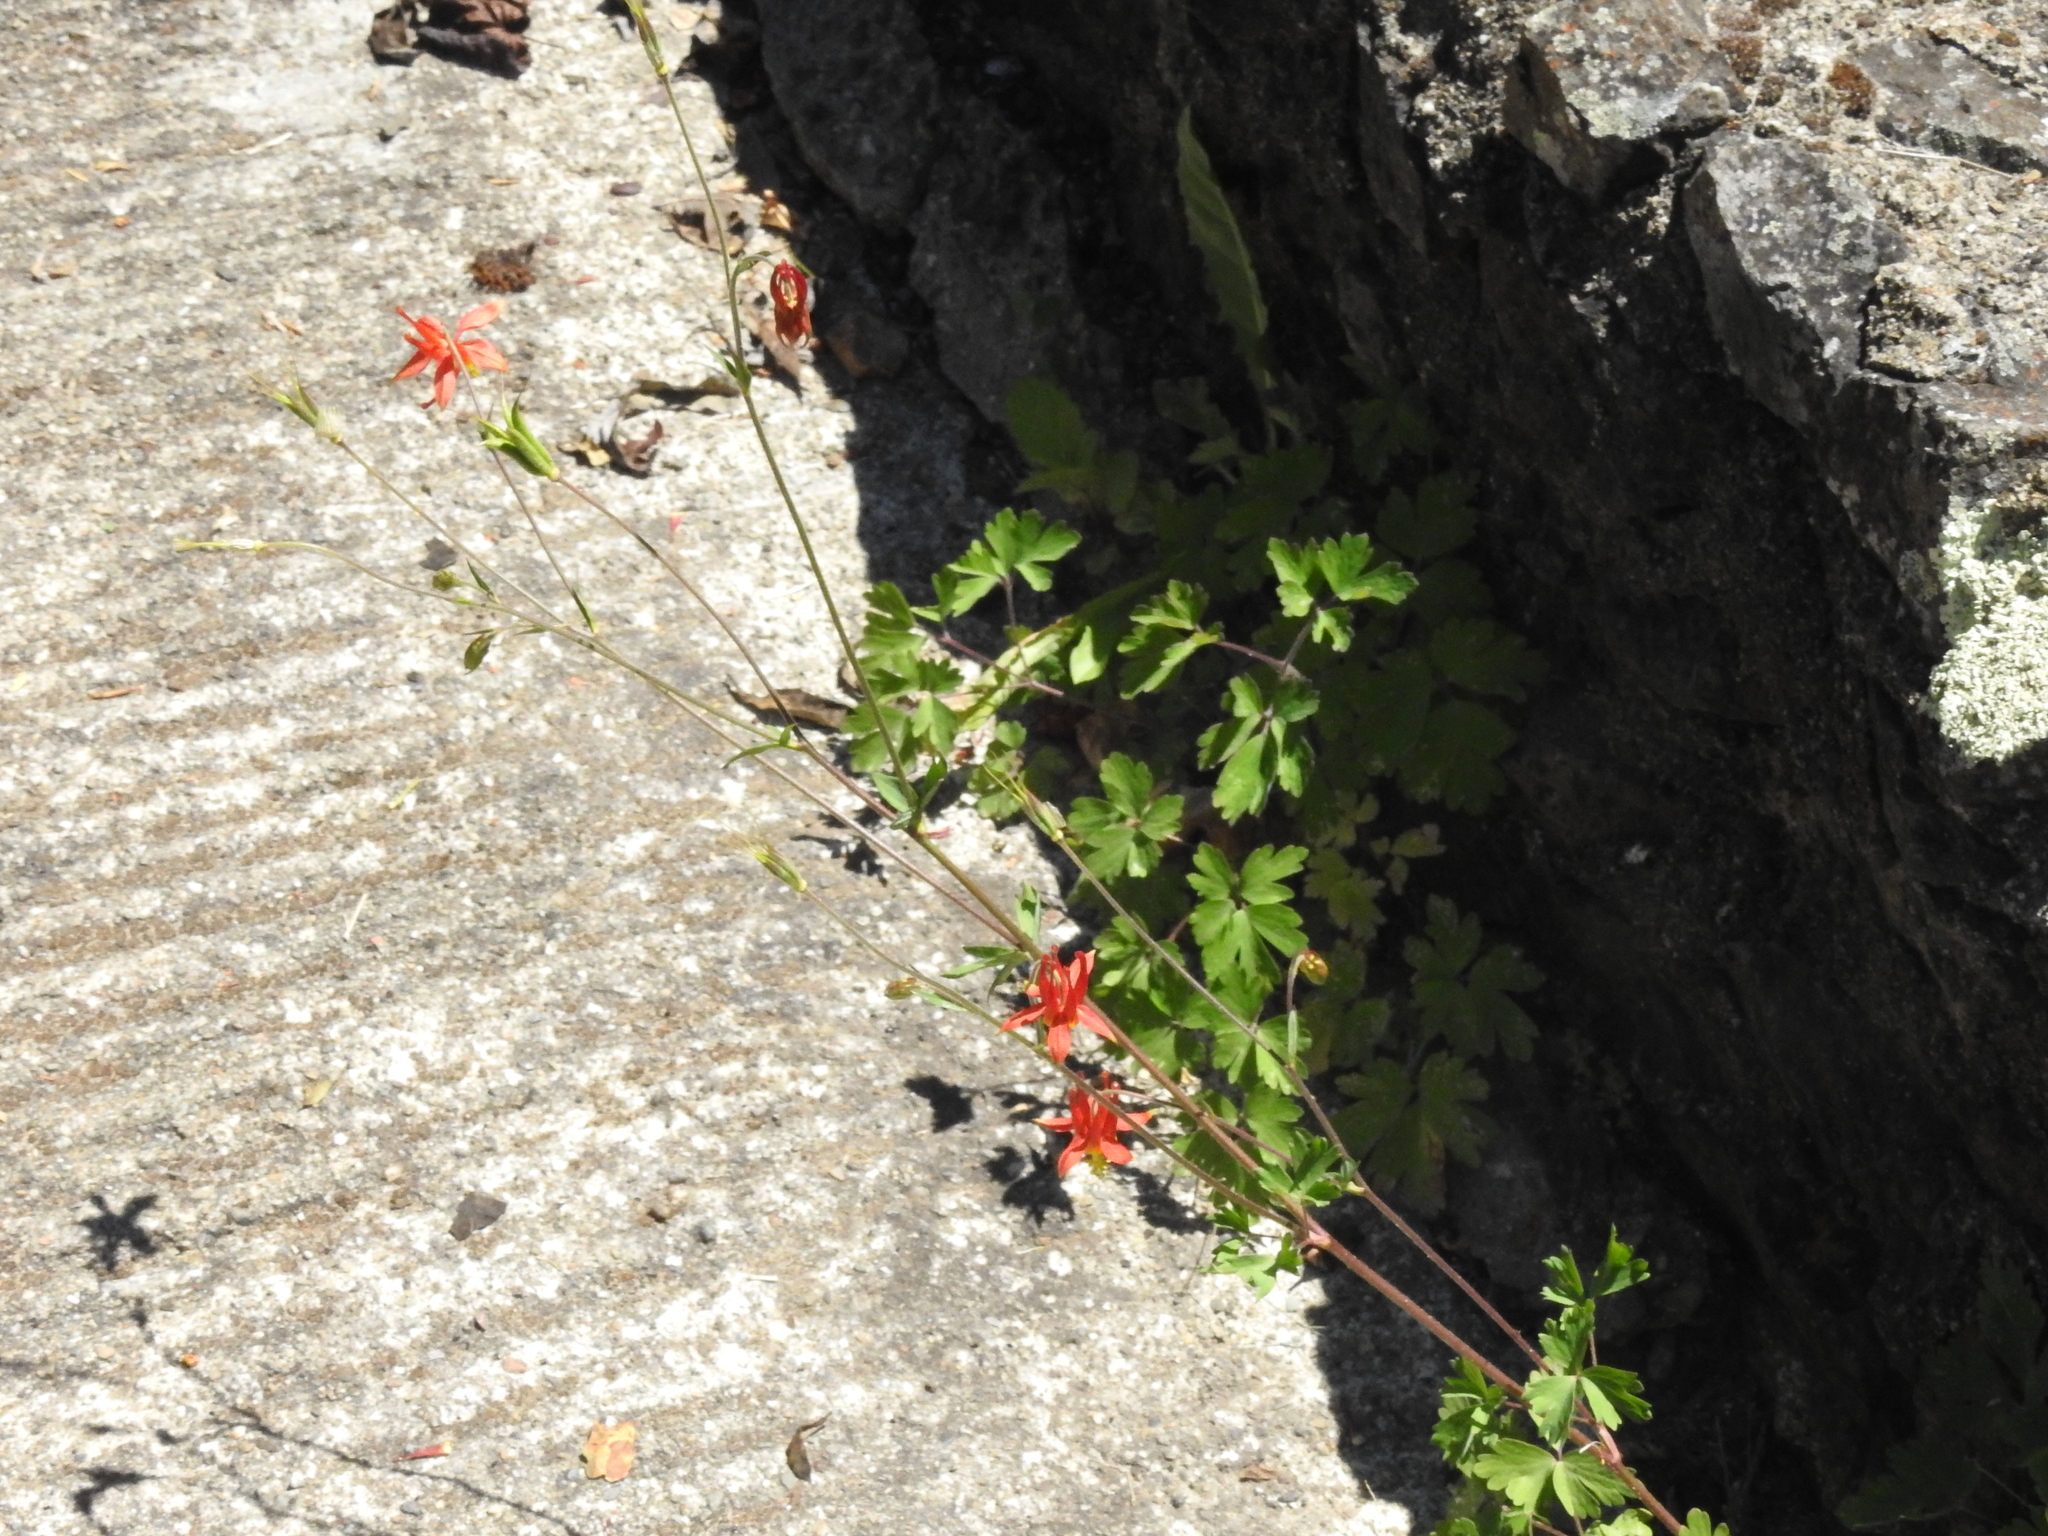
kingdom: Plantae
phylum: Tracheophyta
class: Magnoliopsida
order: Ranunculales
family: Ranunculaceae
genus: Aquilegia
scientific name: Aquilegia formosa
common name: Sitka columbine
